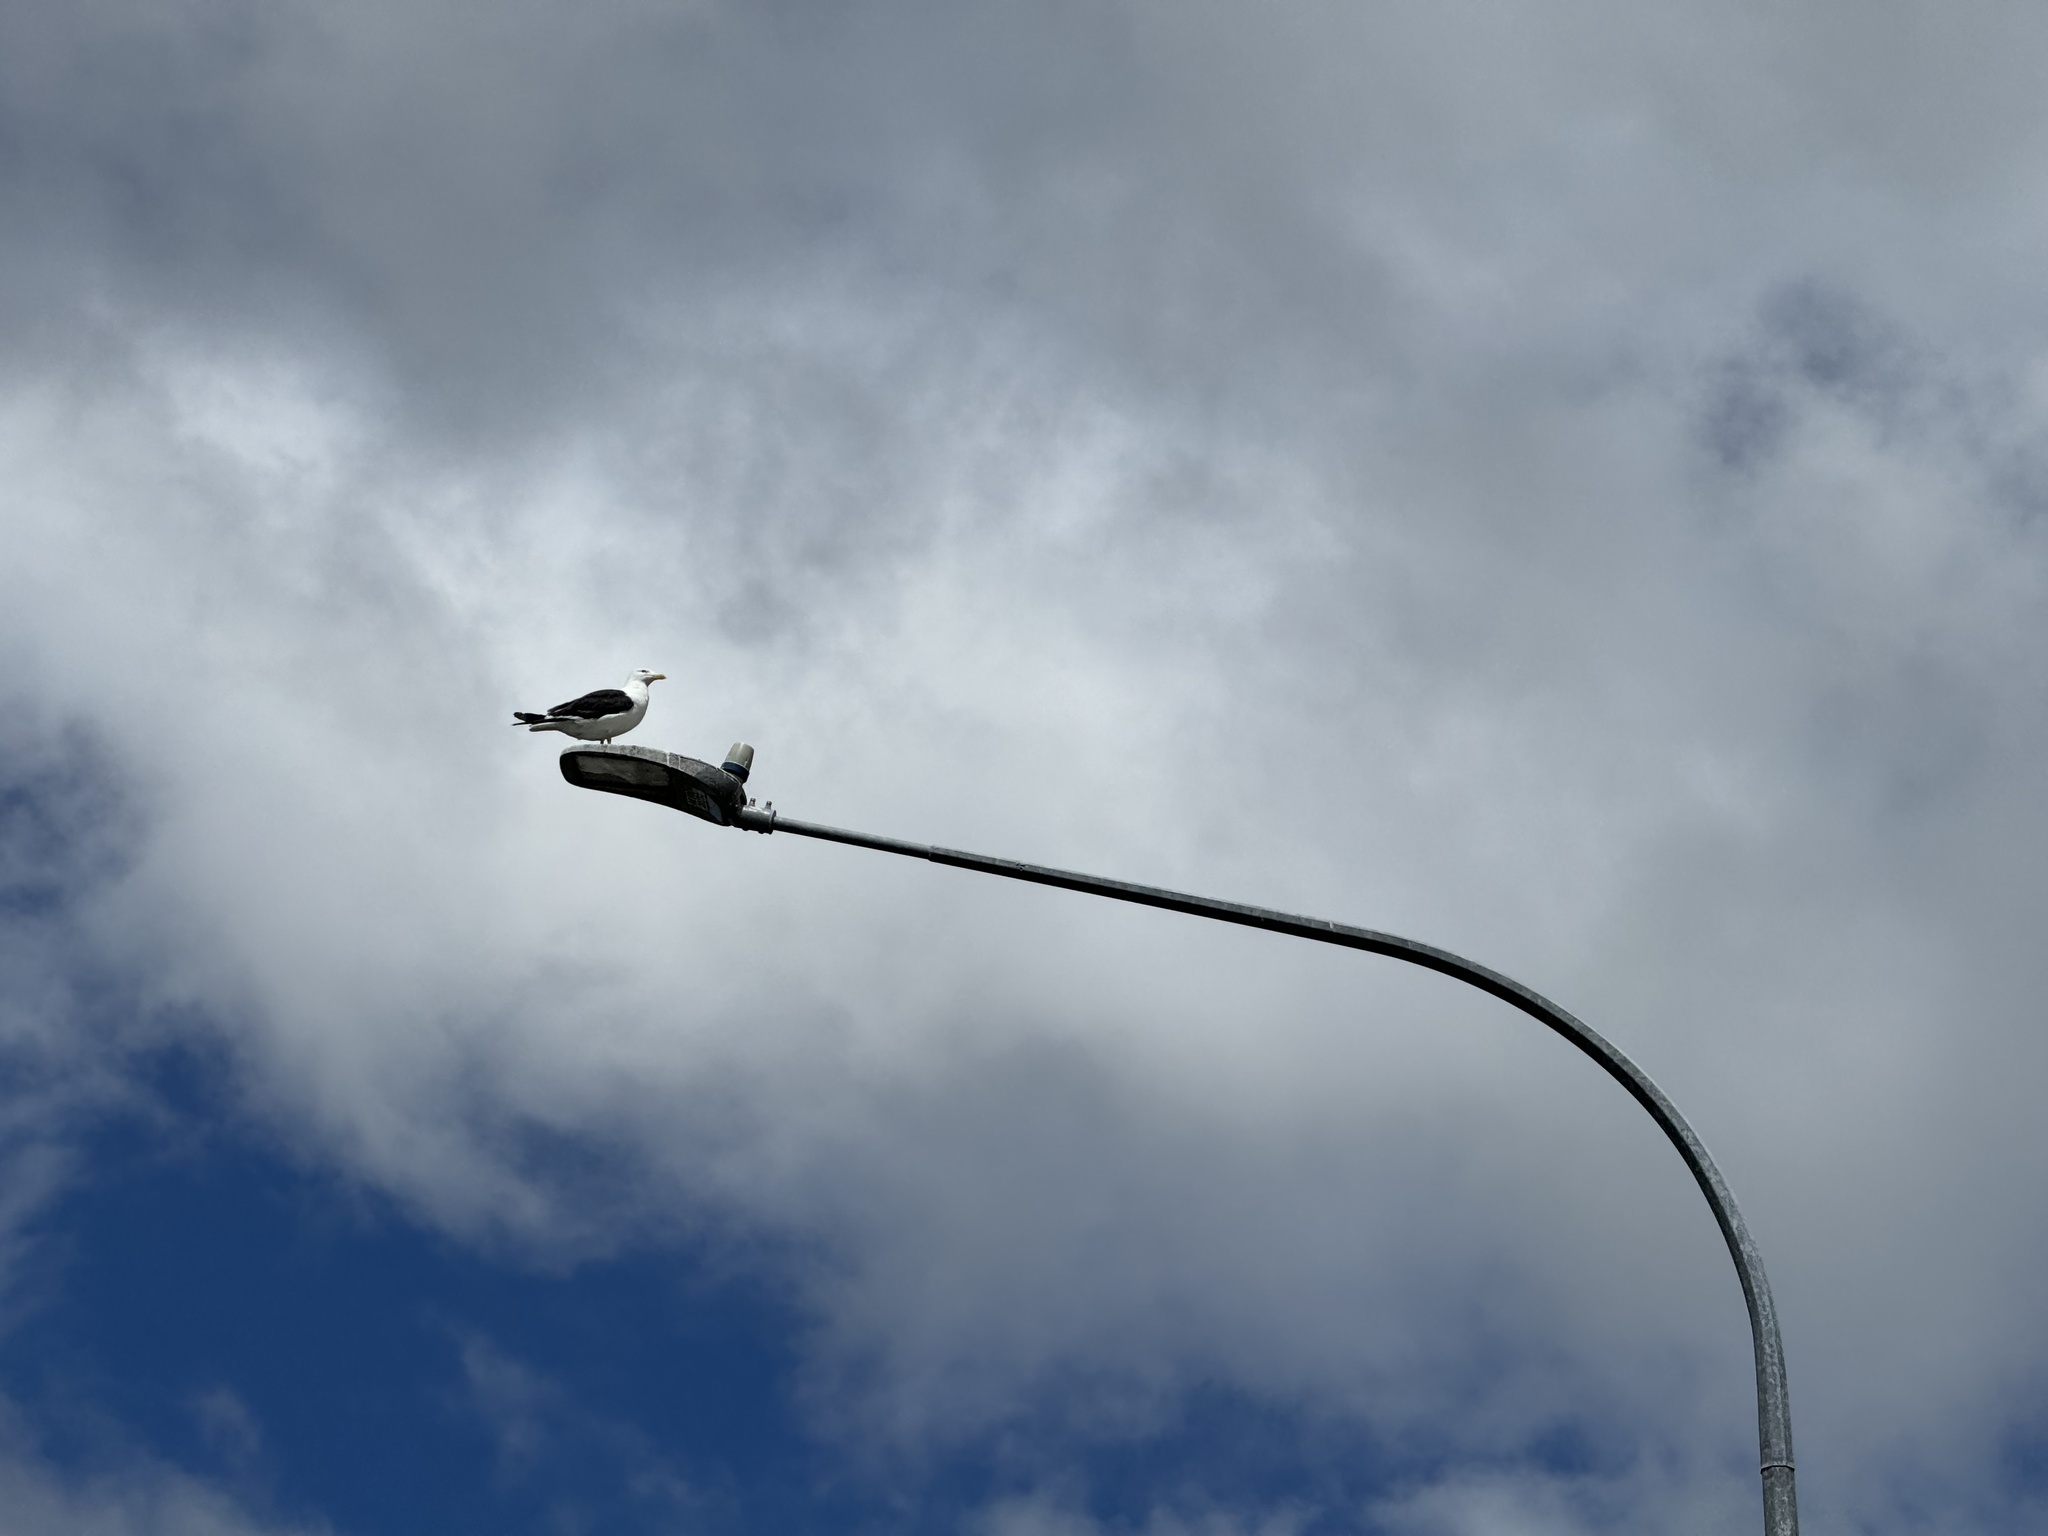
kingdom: Animalia
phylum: Chordata
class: Aves
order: Charadriiformes
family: Laridae
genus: Larus
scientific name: Larus dominicanus
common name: Kelp gull
